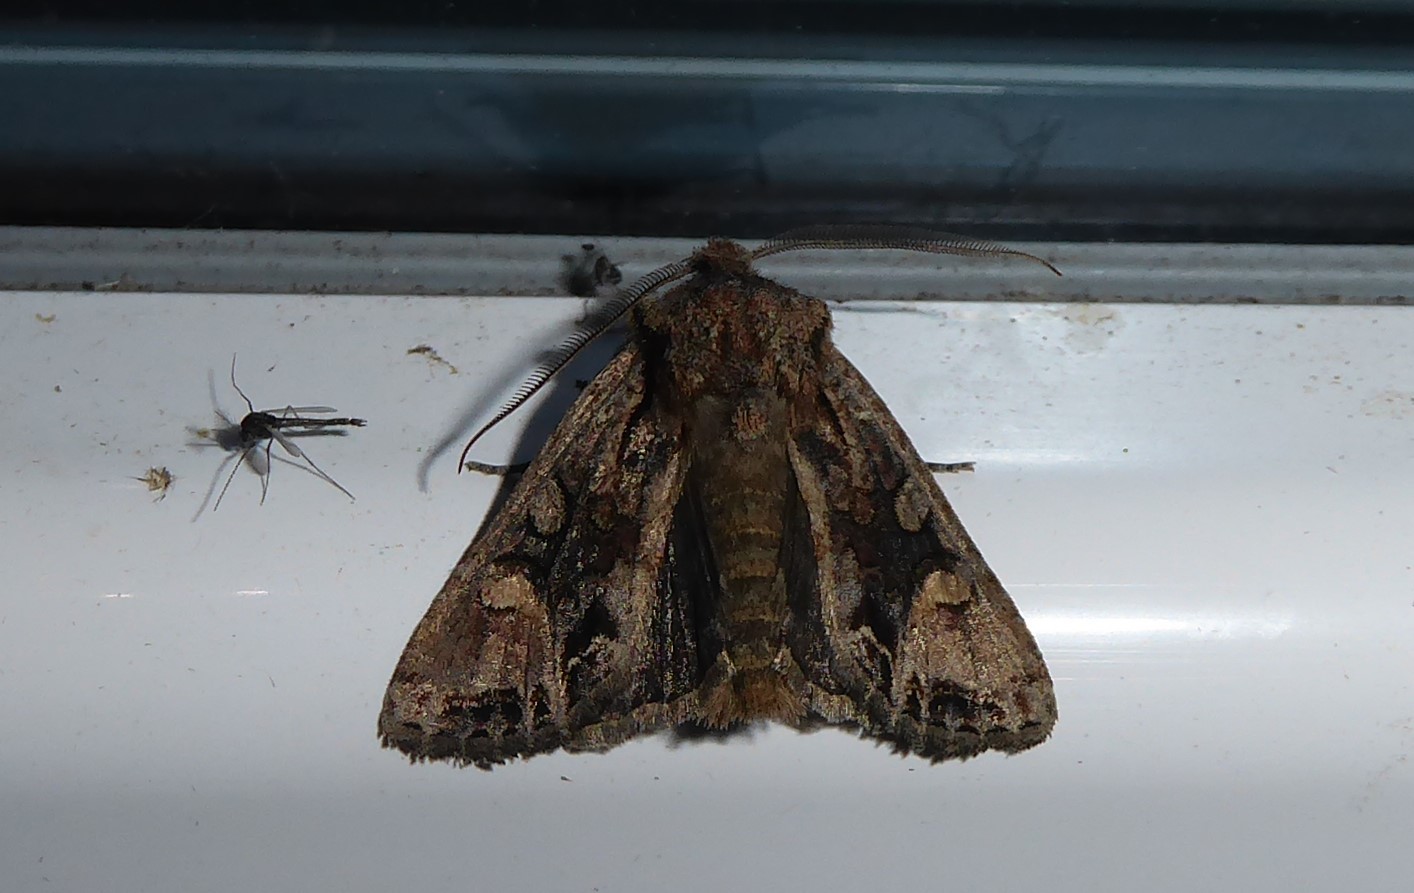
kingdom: Animalia
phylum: Arthropoda
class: Insecta
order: Lepidoptera
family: Noctuidae
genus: Ichneutica
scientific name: Ichneutica skelloni
